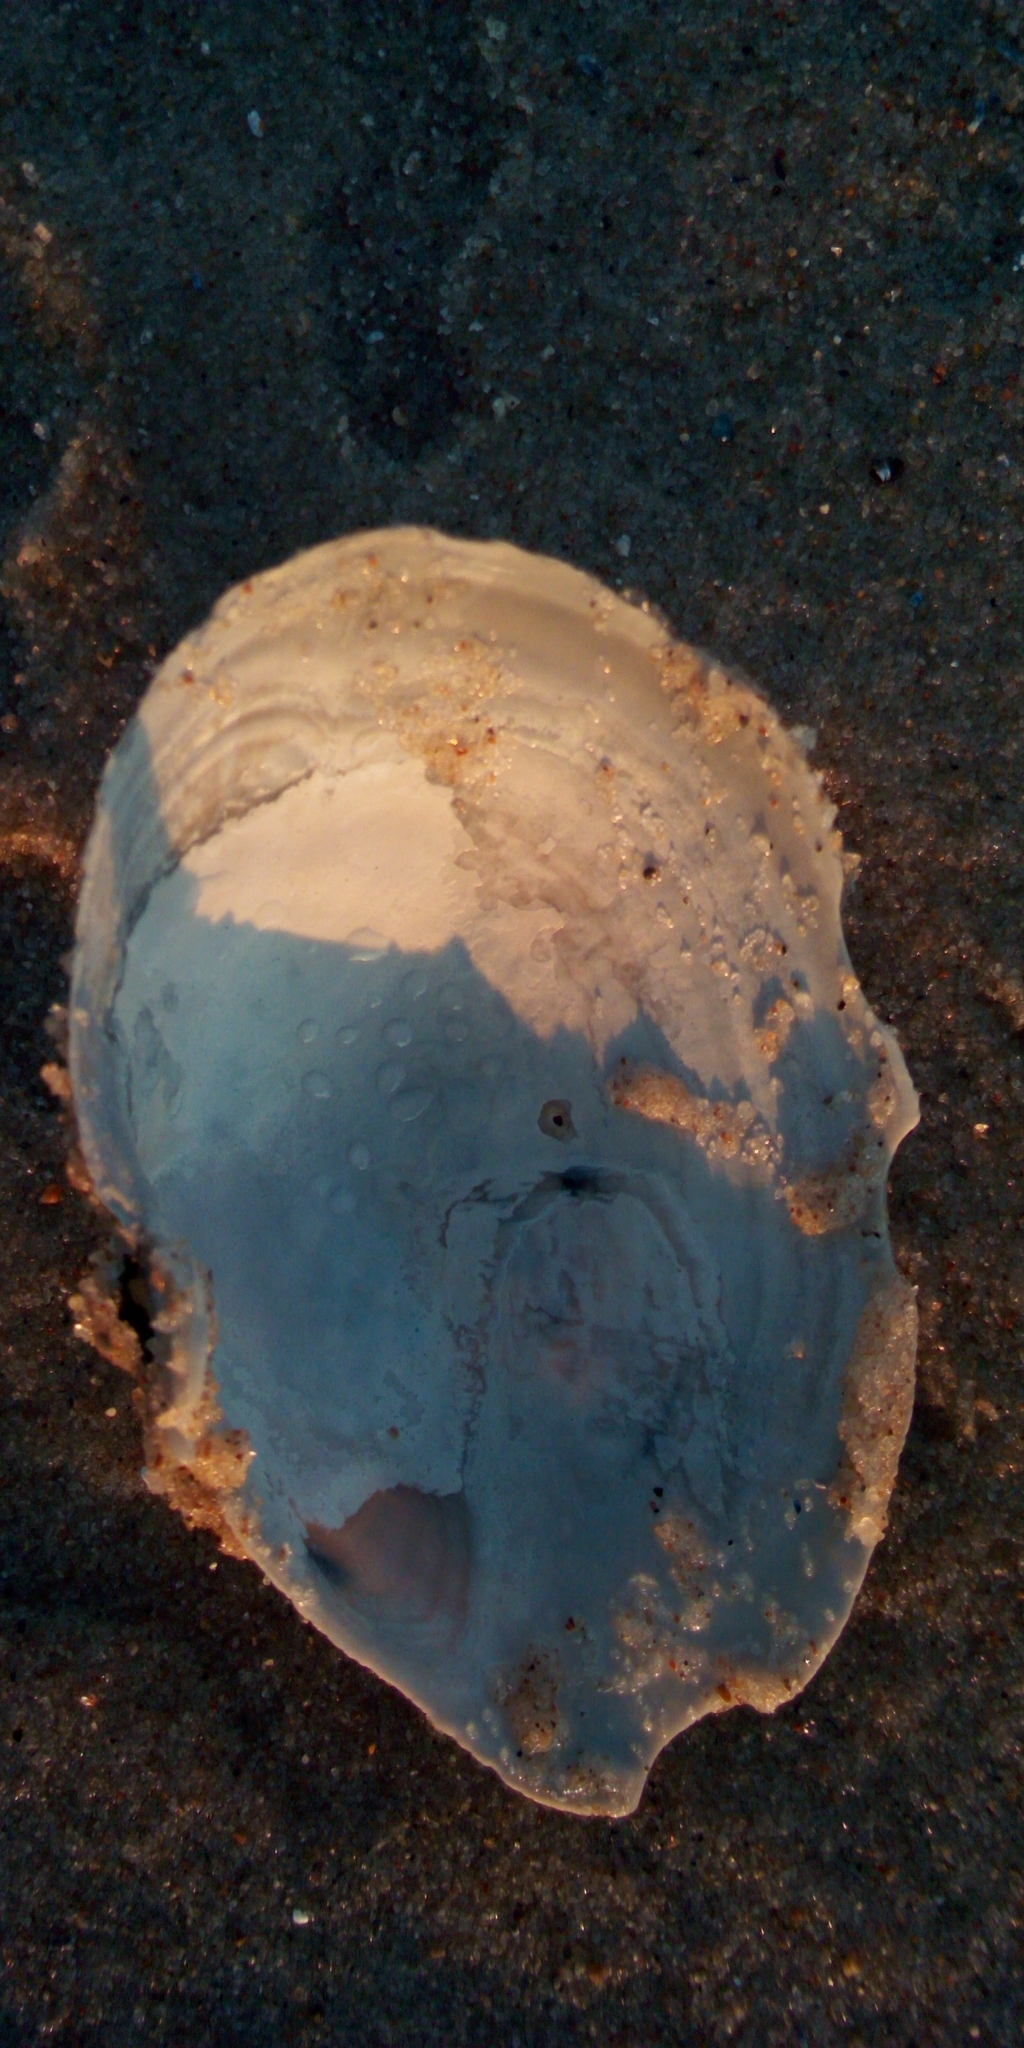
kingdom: Animalia
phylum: Mollusca
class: Bivalvia
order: Myida
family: Myidae
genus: Mya
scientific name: Mya arenaria
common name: Soft-shelled clam
